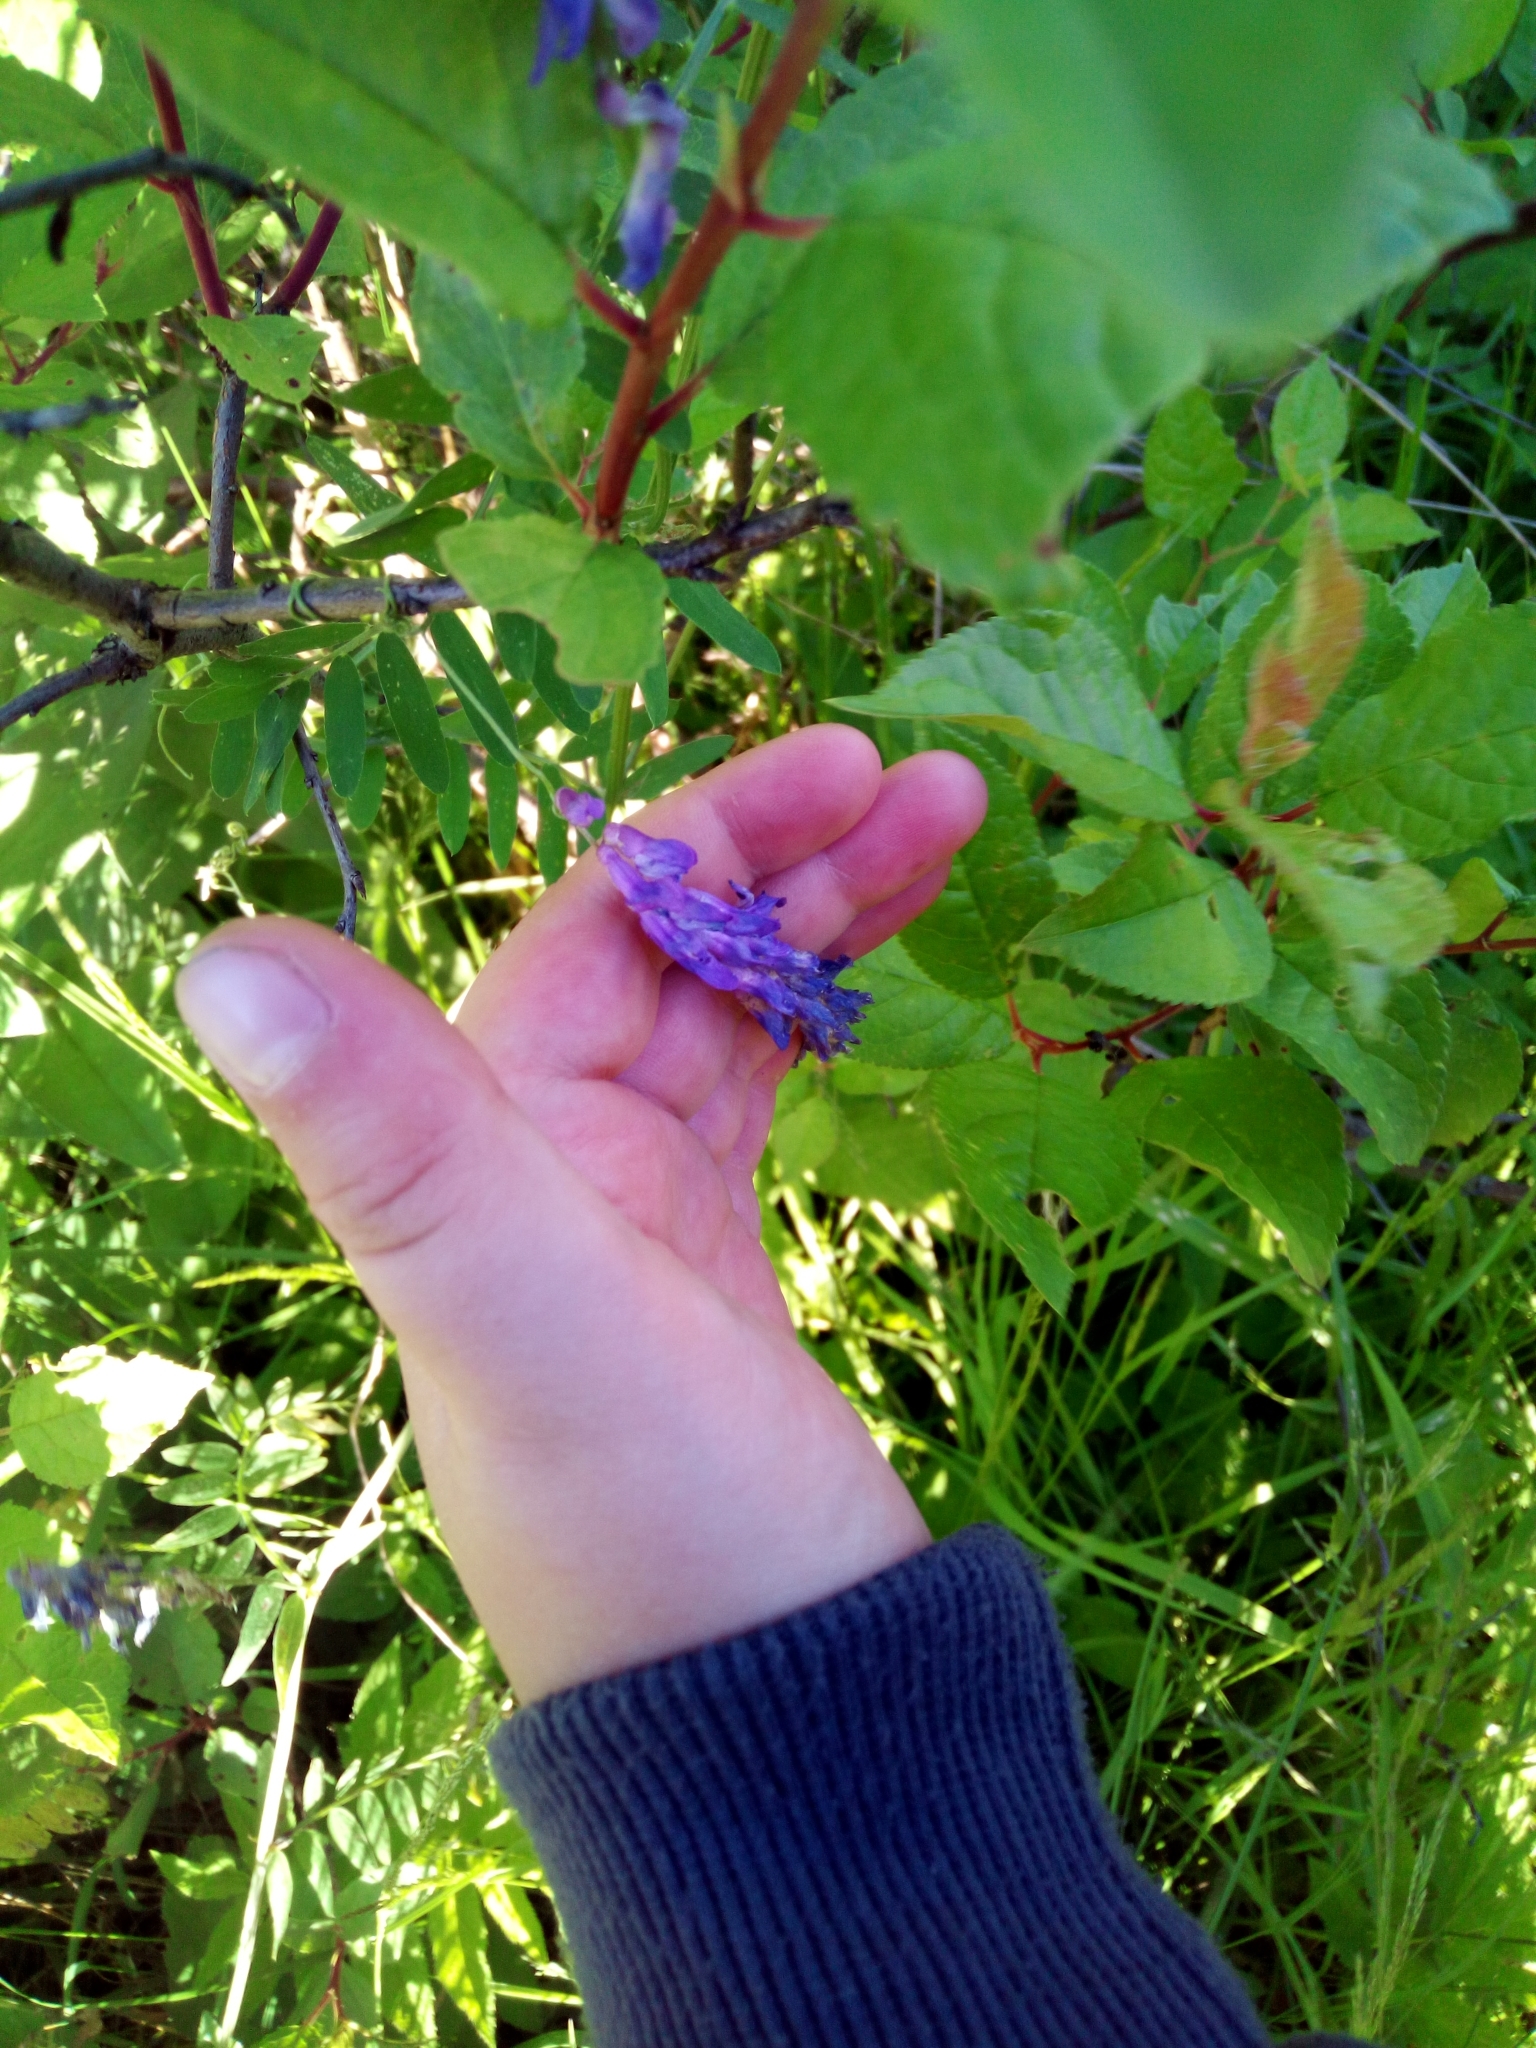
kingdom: Plantae
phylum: Tracheophyta
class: Magnoliopsida
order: Fabales
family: Fabaceae
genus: Vicia
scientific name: Vicia cracca
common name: Bird vetch
